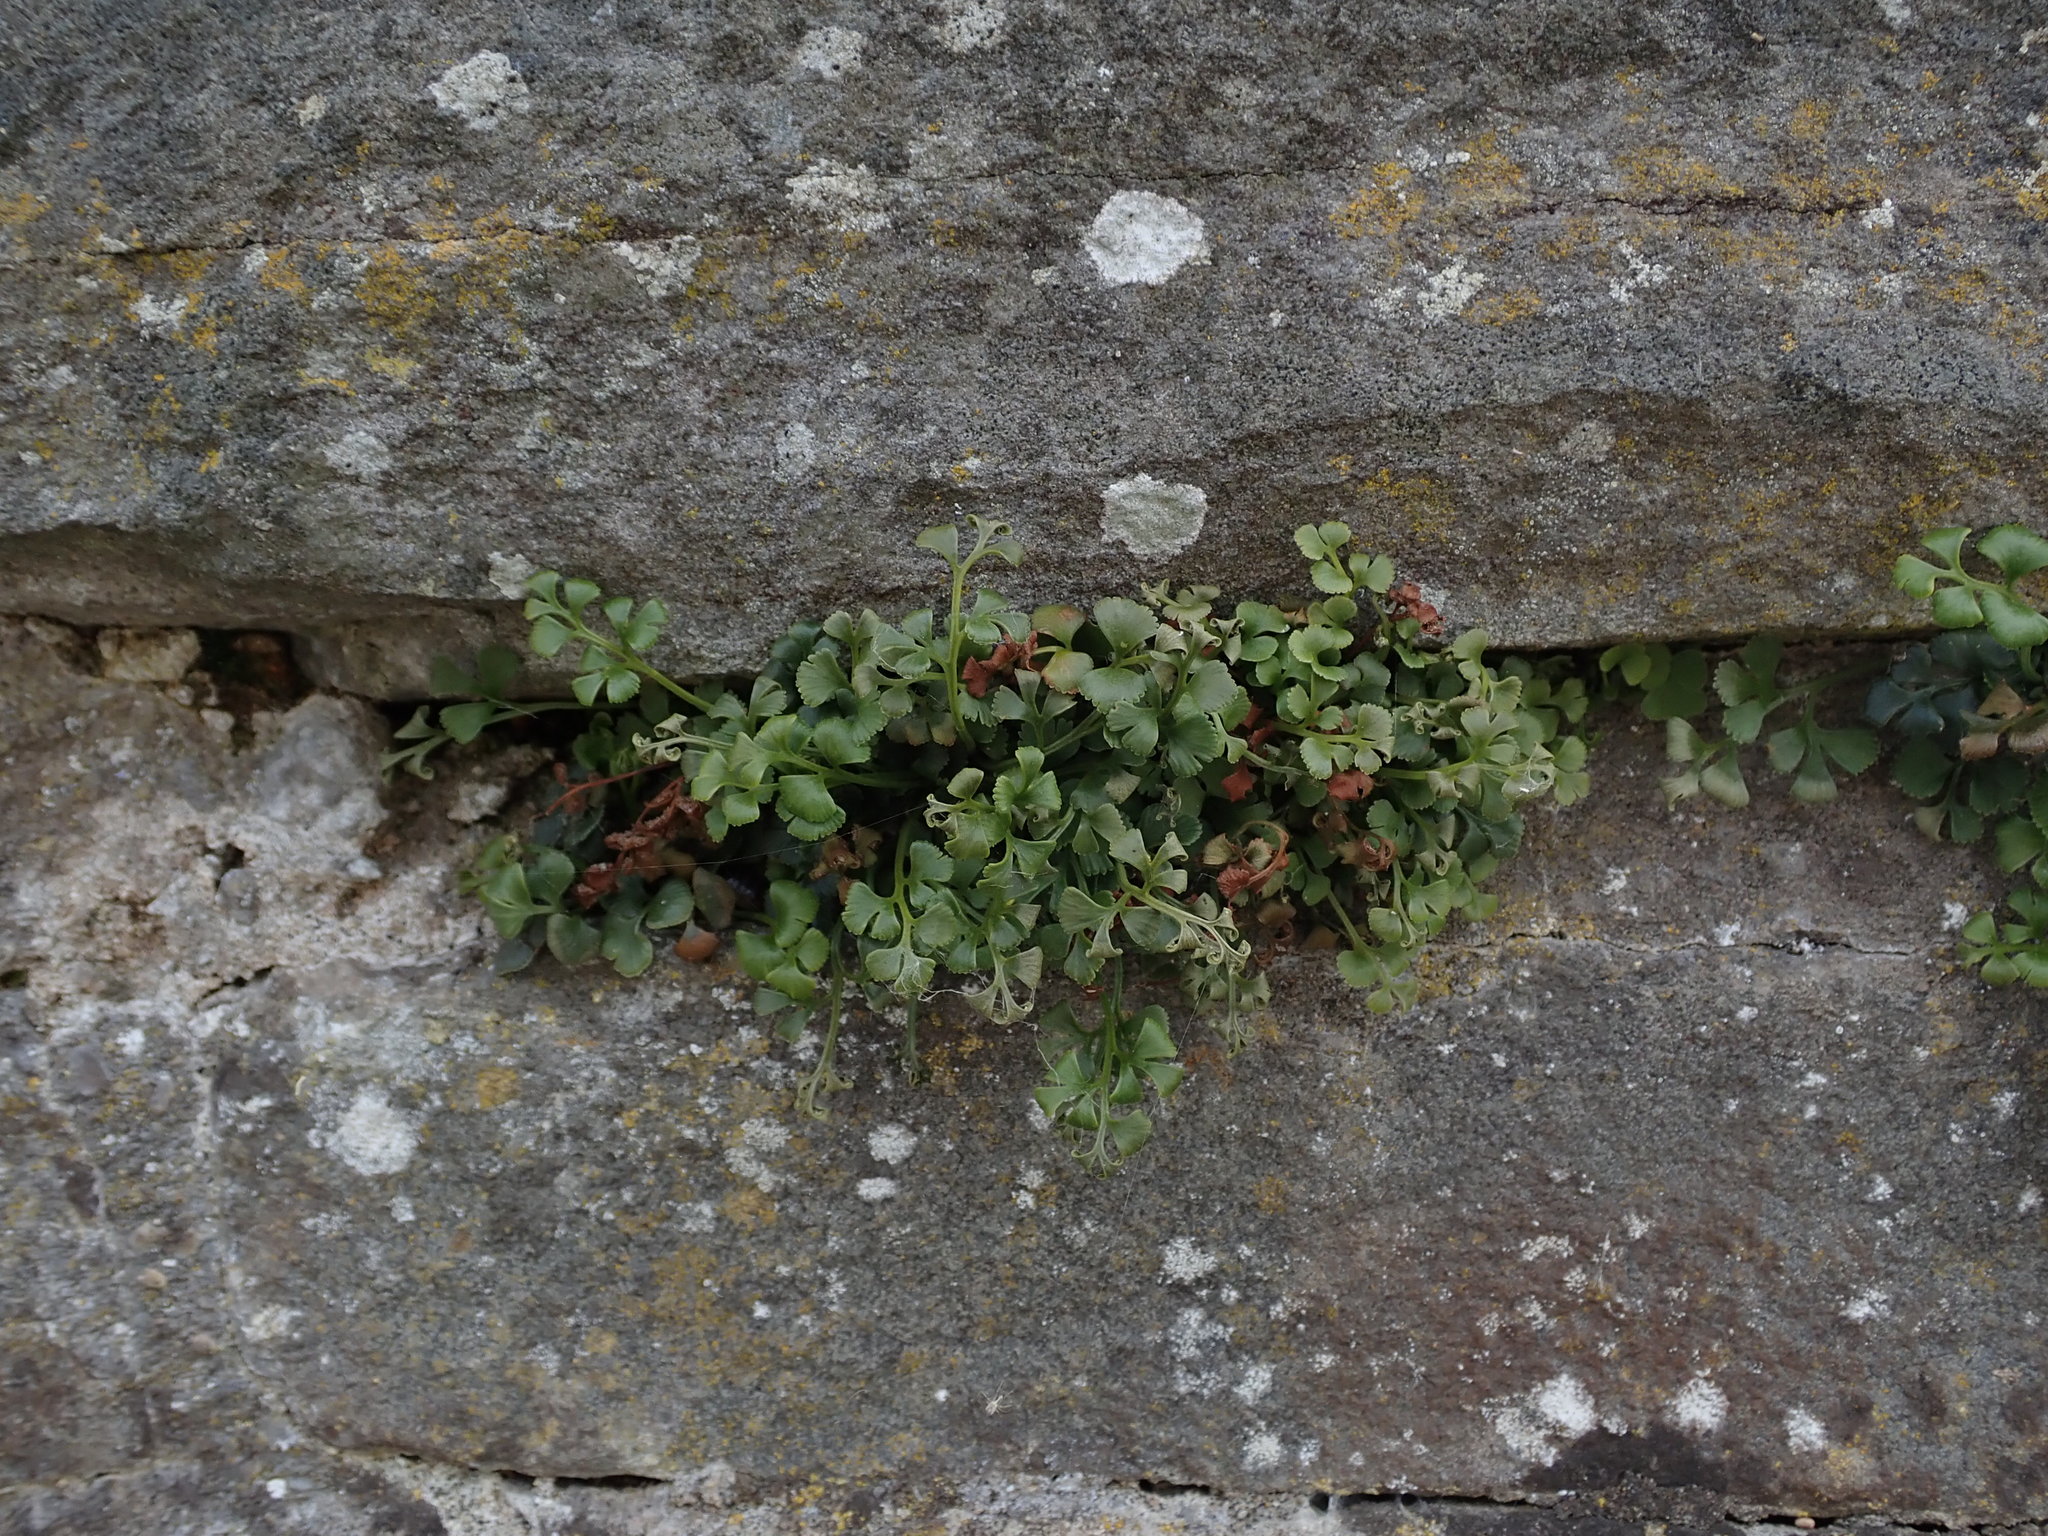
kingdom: Plantae
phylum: Tracheophyta
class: Polypodiopsida
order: Polypodiales
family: Aspleniaceae
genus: Asplenium
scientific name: Asplenium ruta-muraria
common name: Wall-rue
